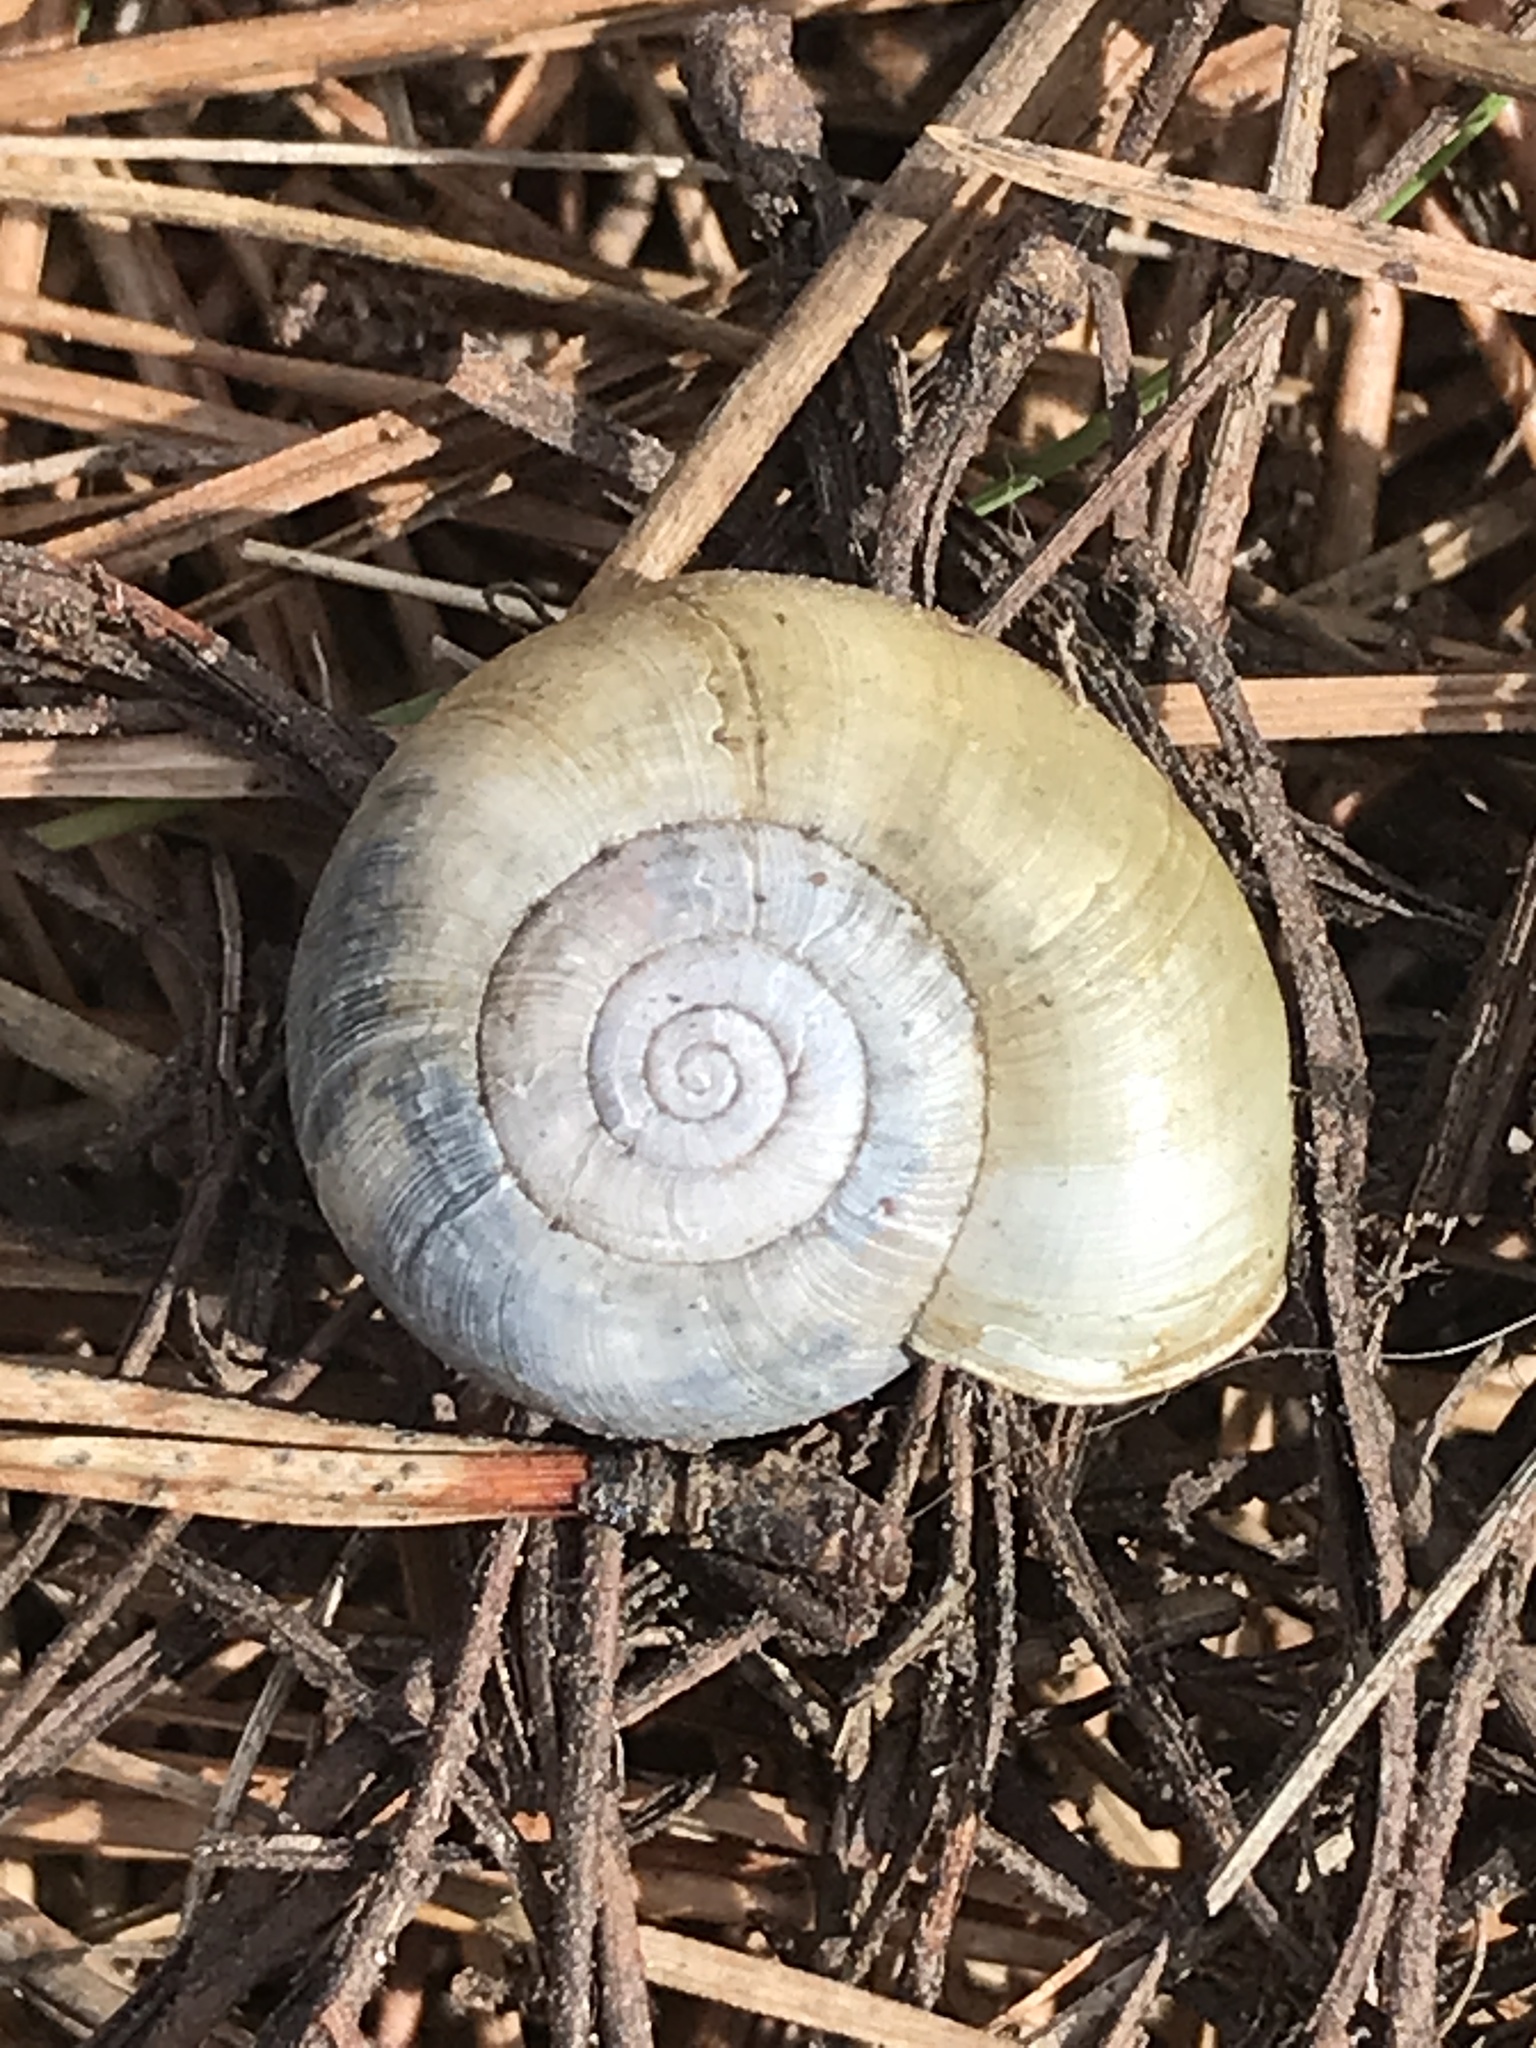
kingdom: Animalia
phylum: Mollusca
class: Gastropoda
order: Stylommatophora
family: Haplotrematidae
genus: Haplotrema
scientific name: Haplotrema minimum
